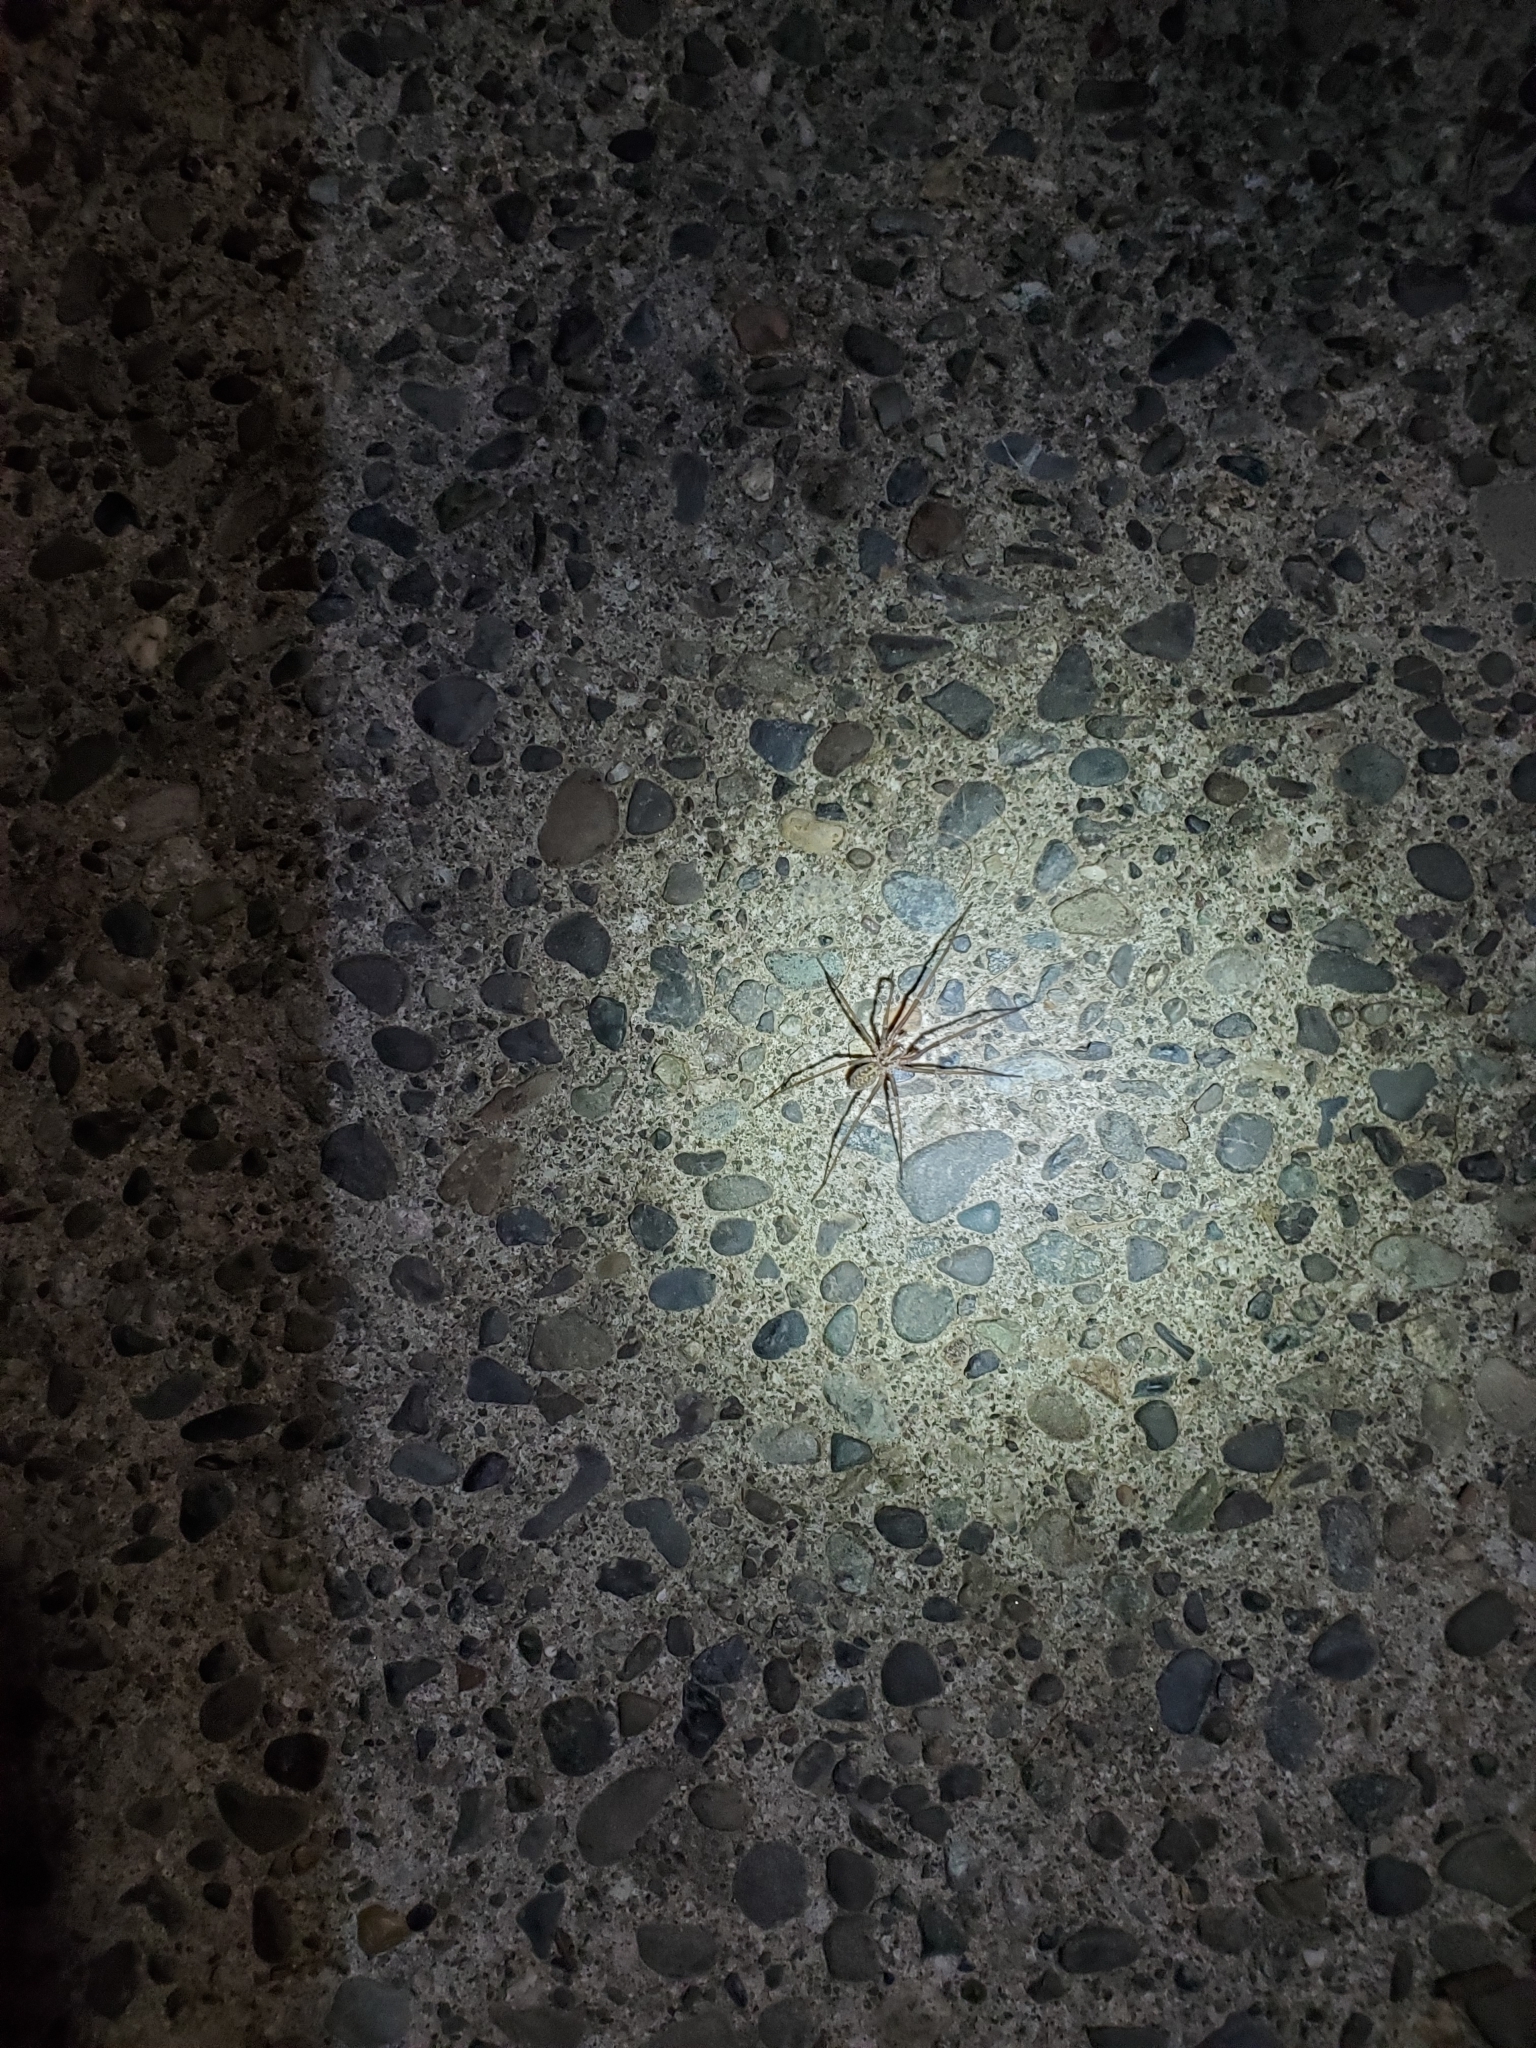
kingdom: Animalia
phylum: Arthropoda
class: Arachnida
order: Araneae
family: Agelenidae
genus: Eratigena
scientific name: Eratigena duellica
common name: Giant house spider
